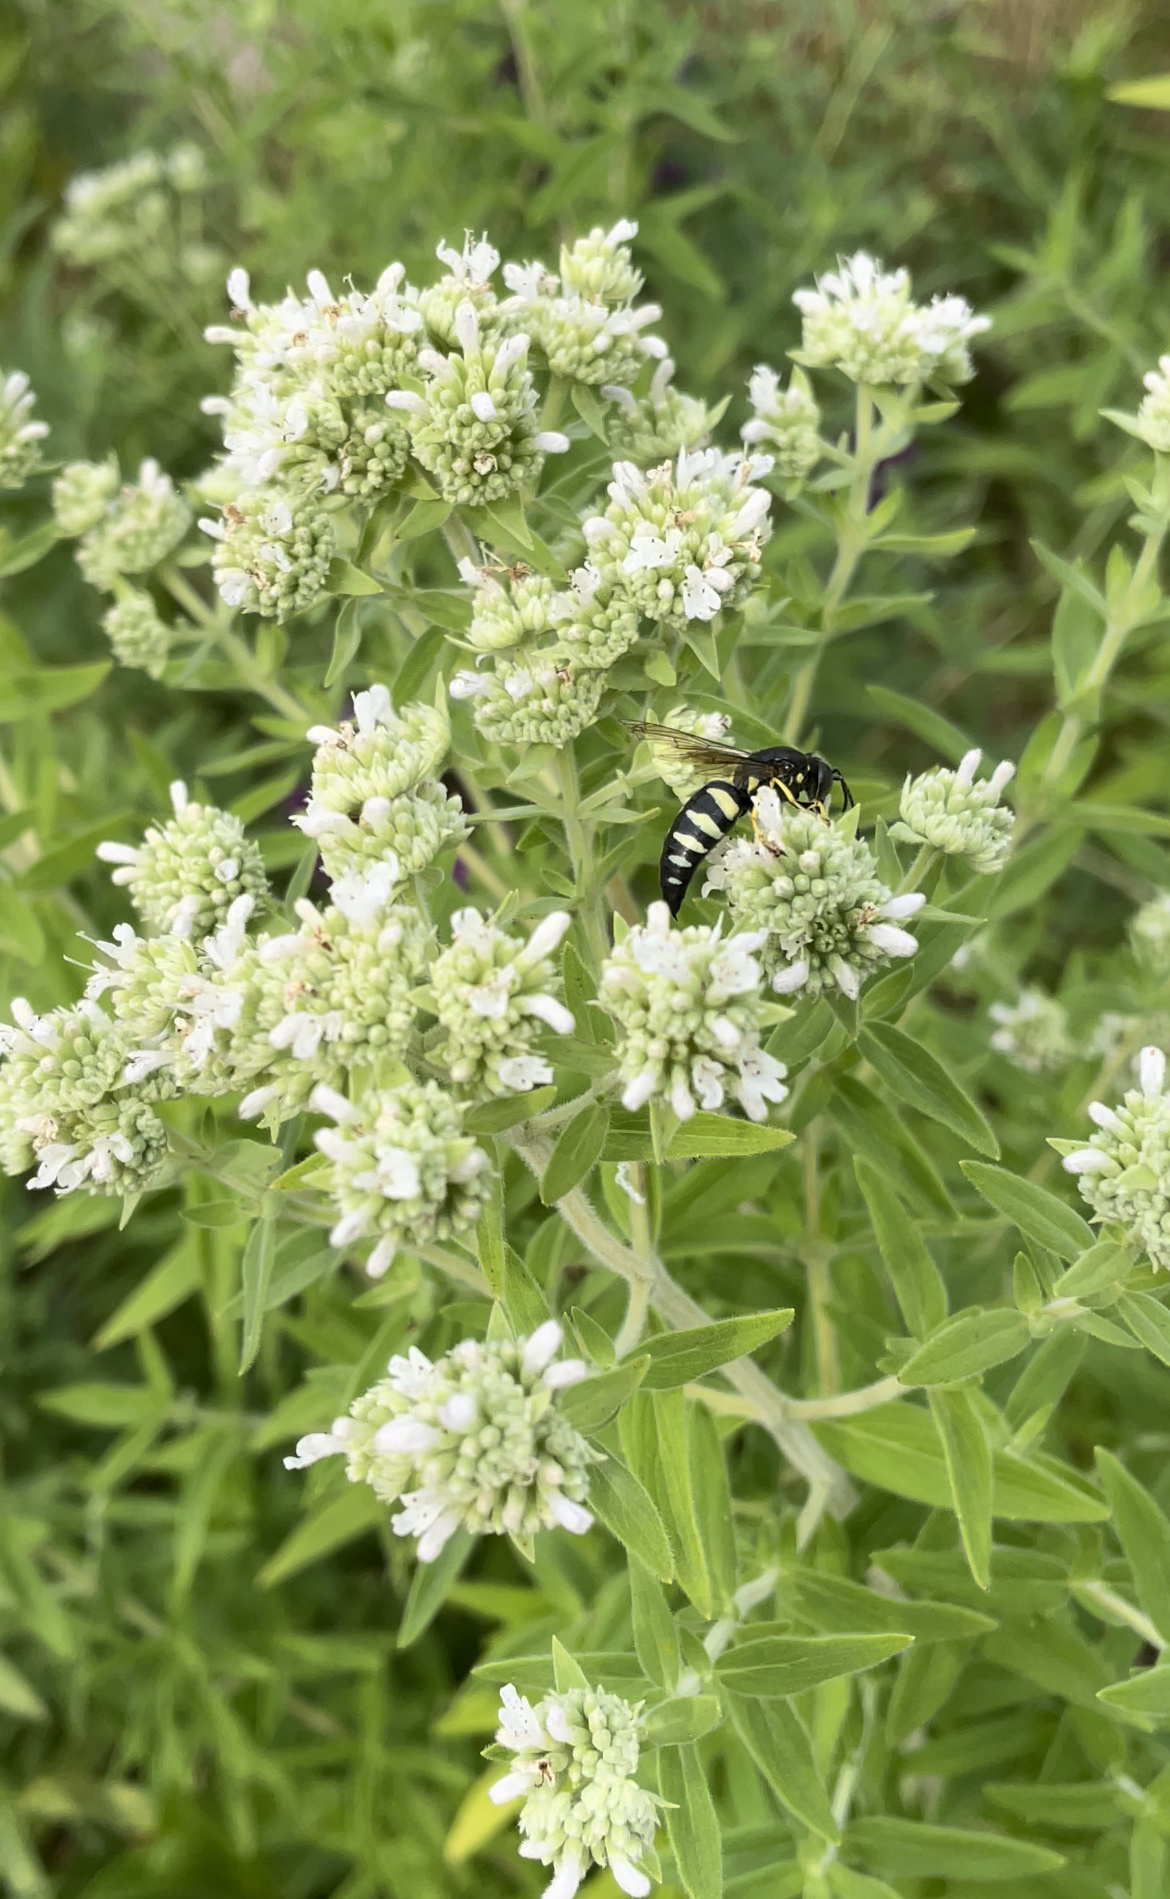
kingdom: Animalia
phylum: Arthropoda
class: Insecta
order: Hymenoptera
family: Crabronidae
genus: Bicyrtes
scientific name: Bicyrtes quadrifasciatus
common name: Four-banded stink bug hunter wasp
